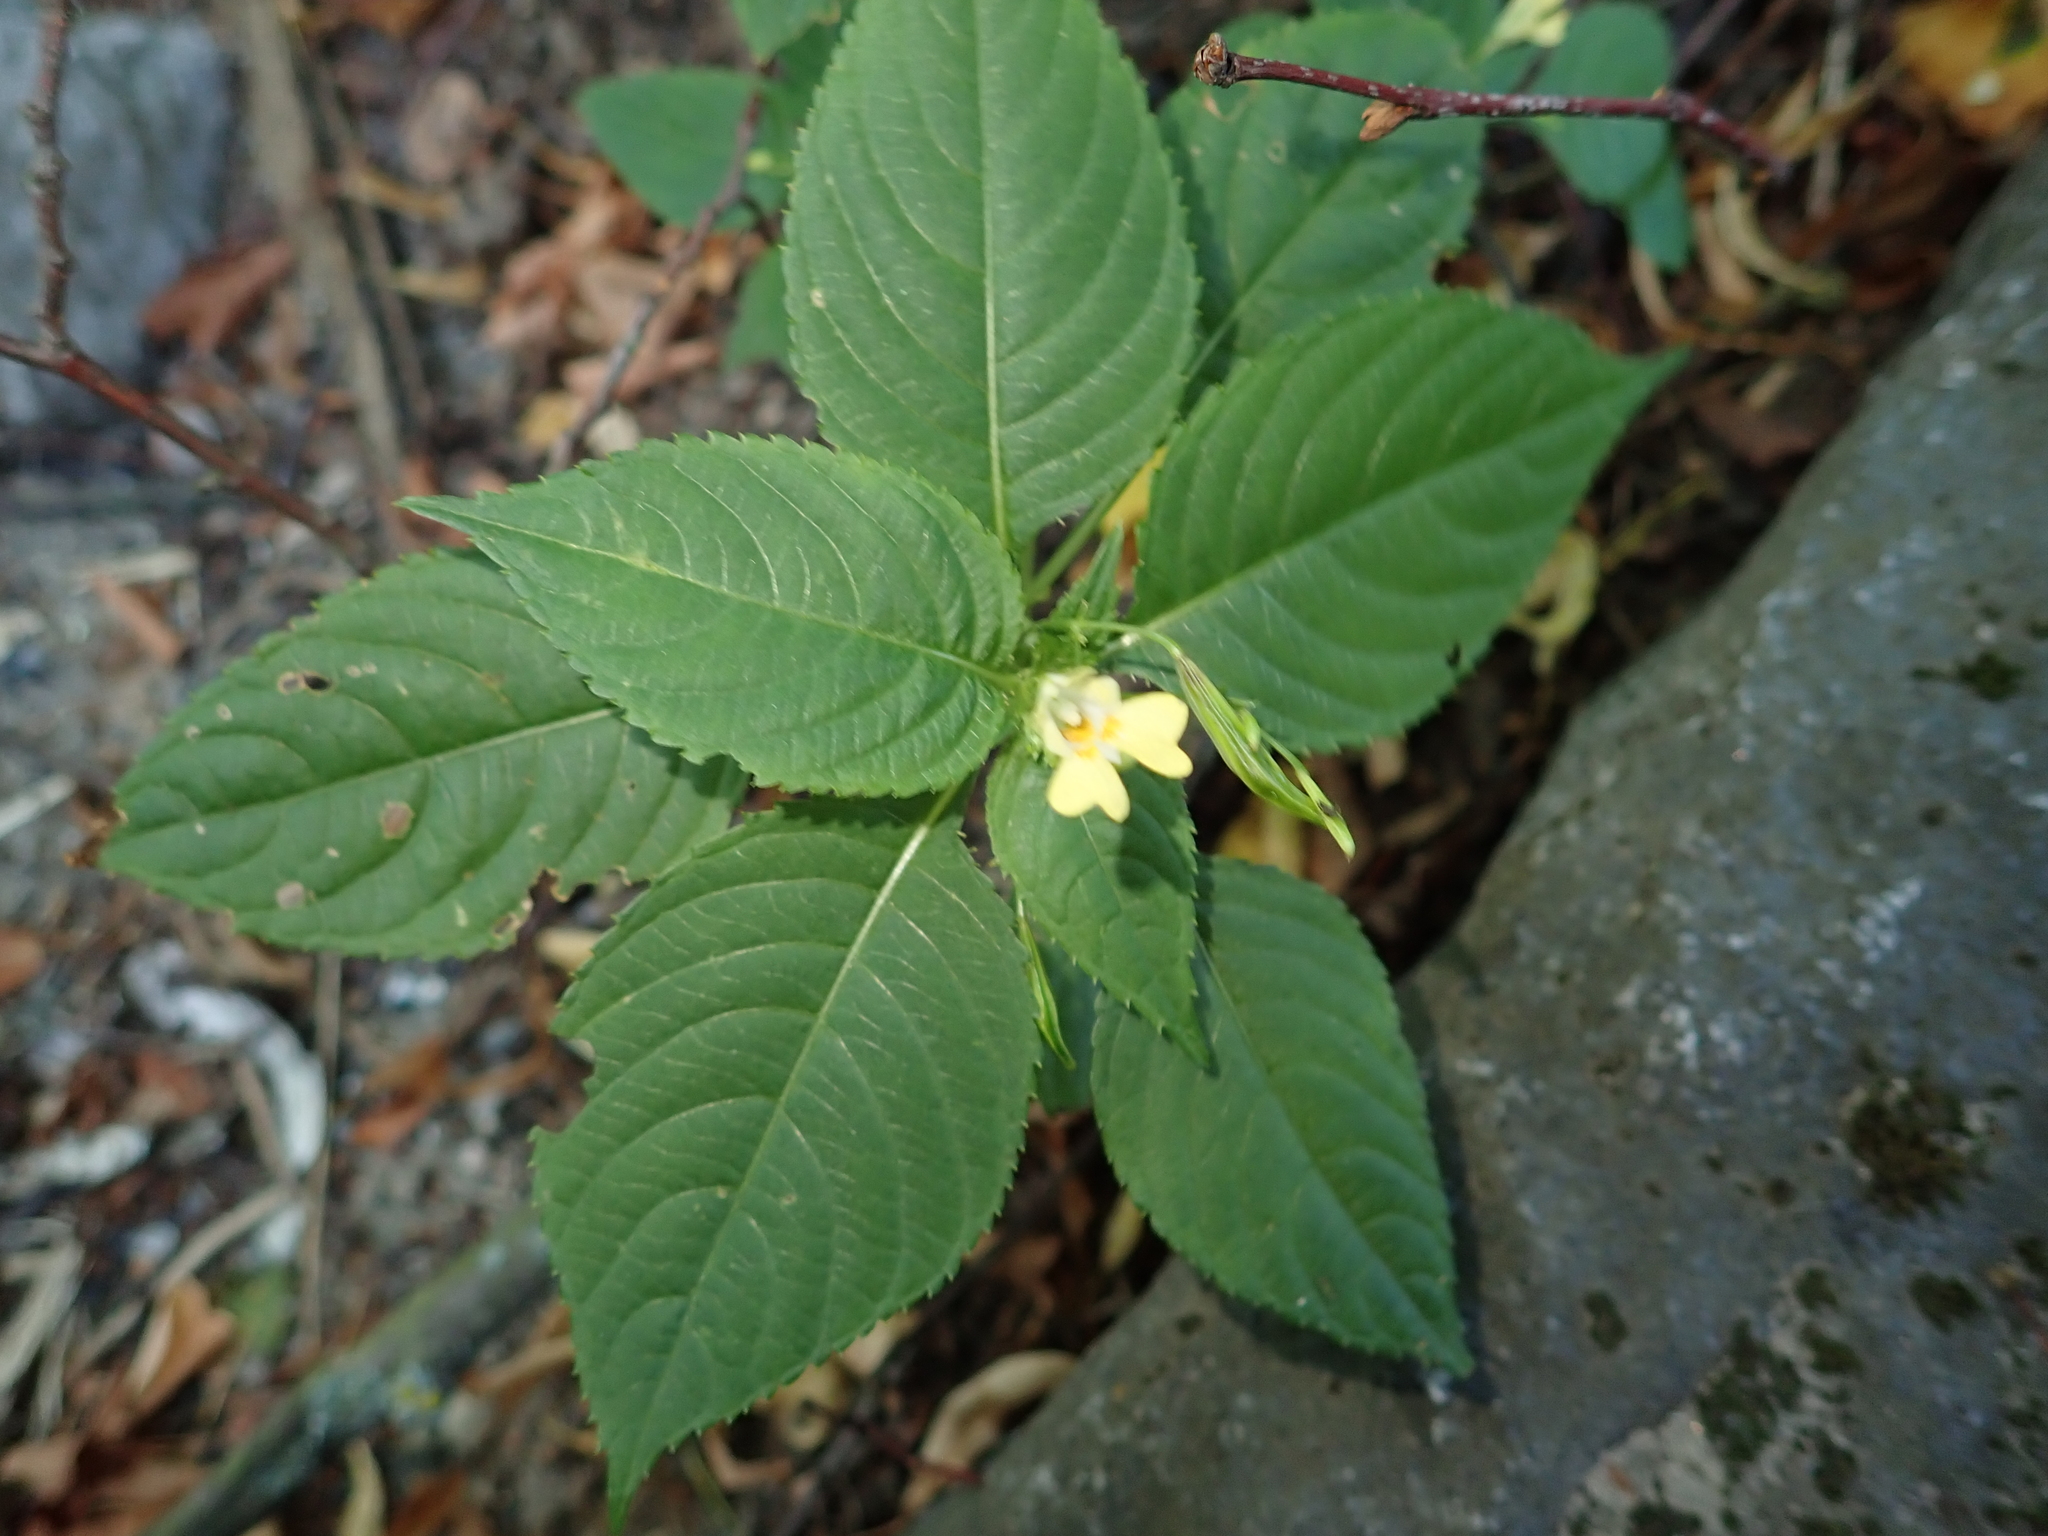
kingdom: Plantae
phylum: Tracheophyta
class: Magnoliopsida
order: Ericales
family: Balsaminaceae
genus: Impatiens
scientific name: Impatiens parviflora
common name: Small balsam
